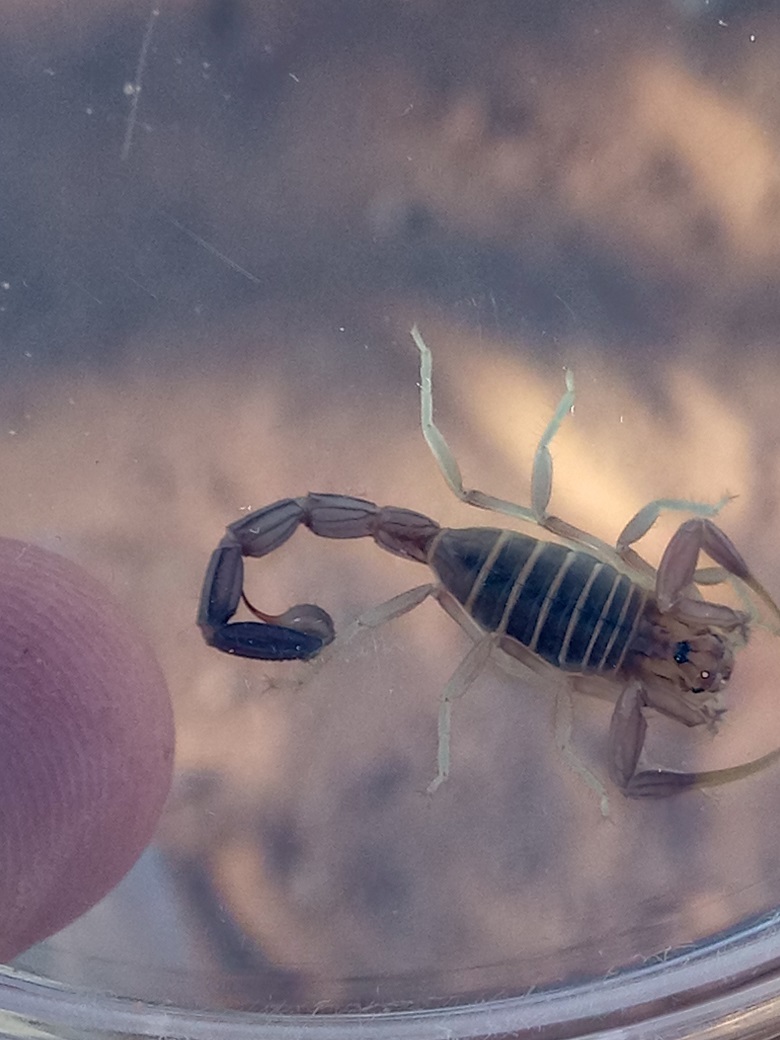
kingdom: Animalia
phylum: Arthropoda
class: Arachnida
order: Scorpiones
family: Buthidae
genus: Androctonus
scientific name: Androctonus amoreuxi
